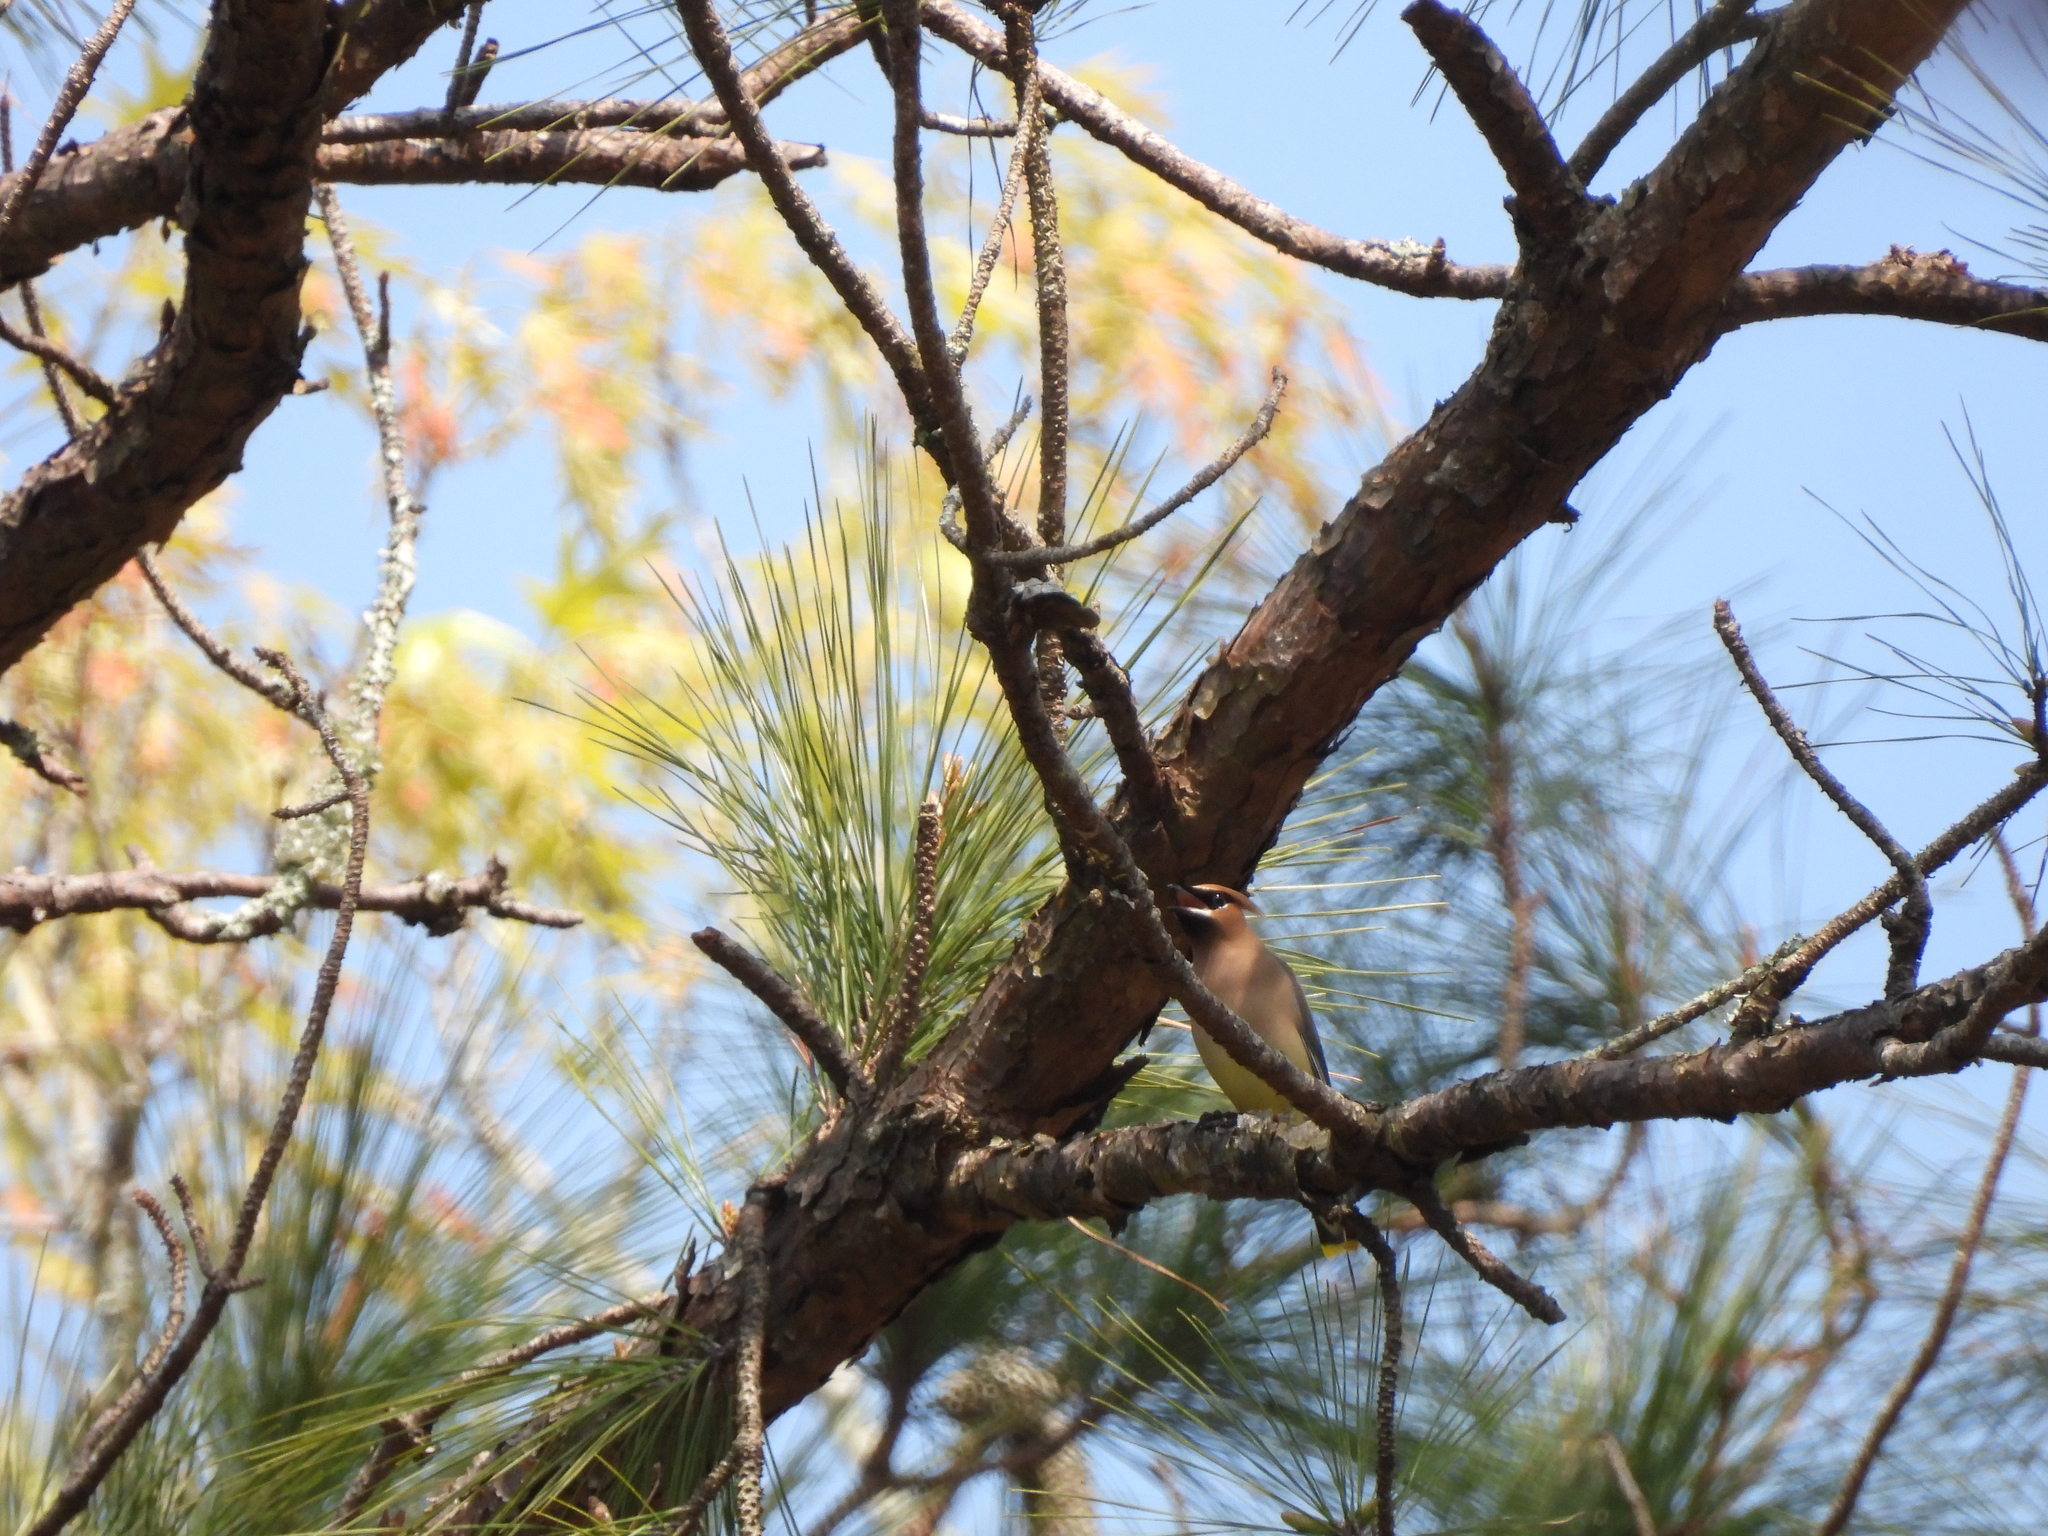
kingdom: Animalia
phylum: Chordata
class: Aves
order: Passeriformes
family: Bombycillidae
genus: Bombycilla
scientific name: Bombycilla cedrorum
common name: Cedar waxwing
